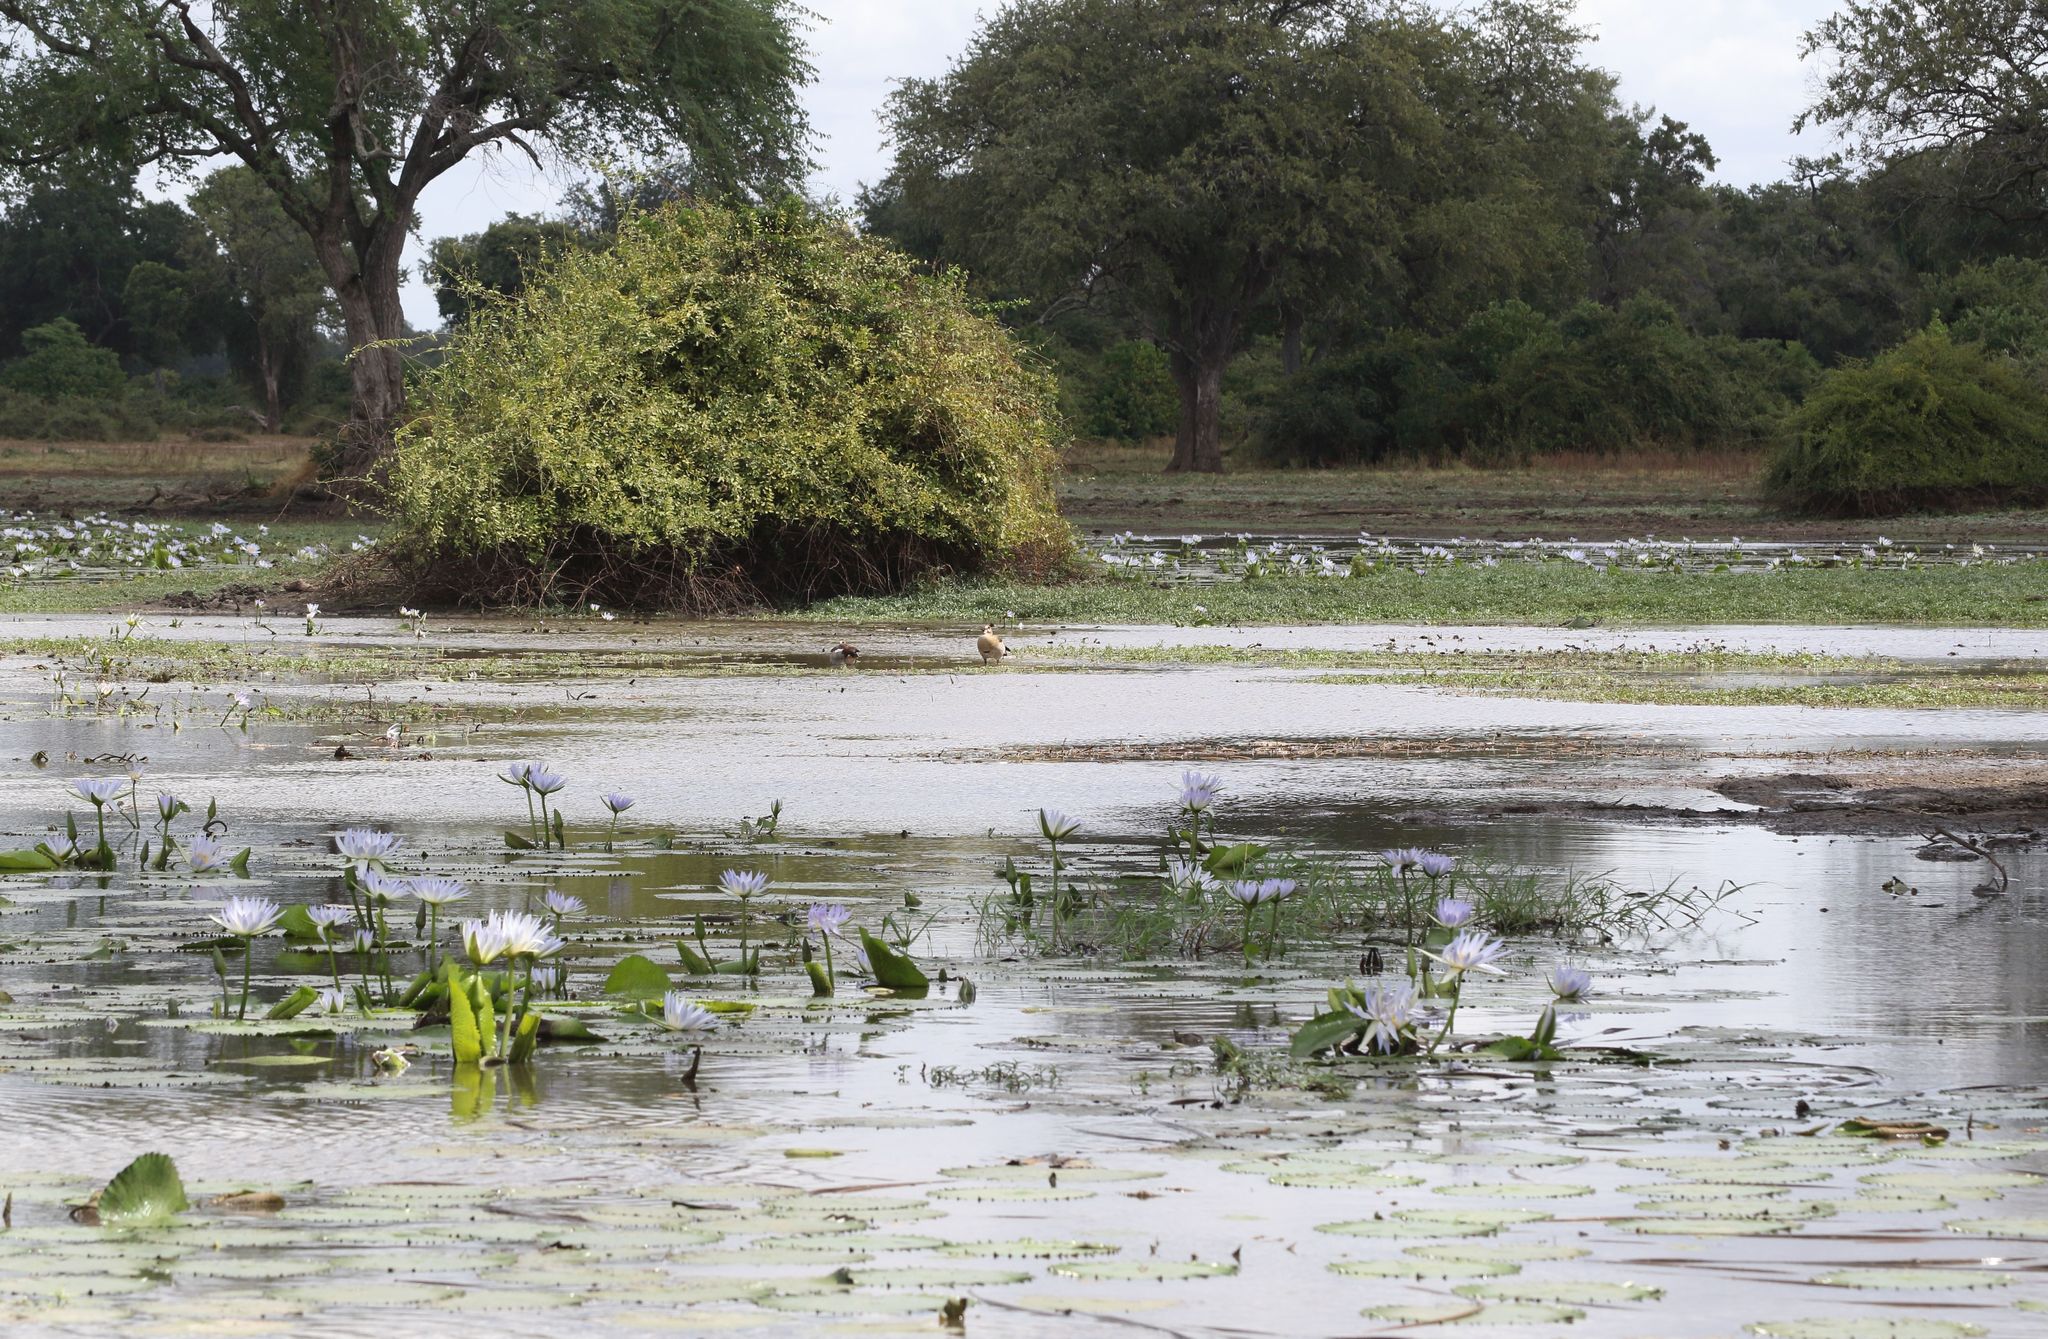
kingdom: Animalia
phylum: Chordata
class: Aves
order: Anseriformes
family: Anatidae
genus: Alopochen
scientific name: Alopochen aegyptiaca
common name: Egyptian goose
